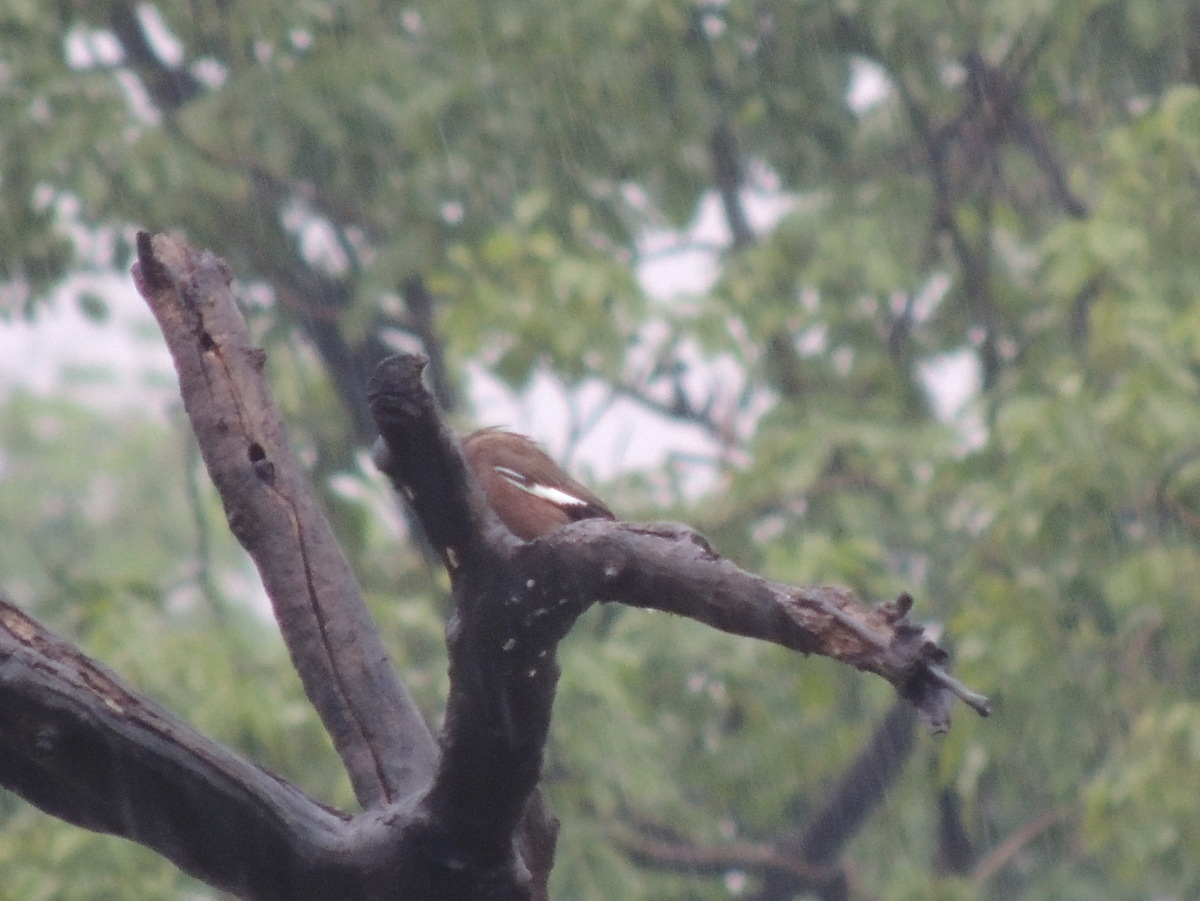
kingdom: Animalia
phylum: Chordata
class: Aves
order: Passeriformes
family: Sturnidae
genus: Acridotheres
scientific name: Acridotheres tristis
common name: Common myna
